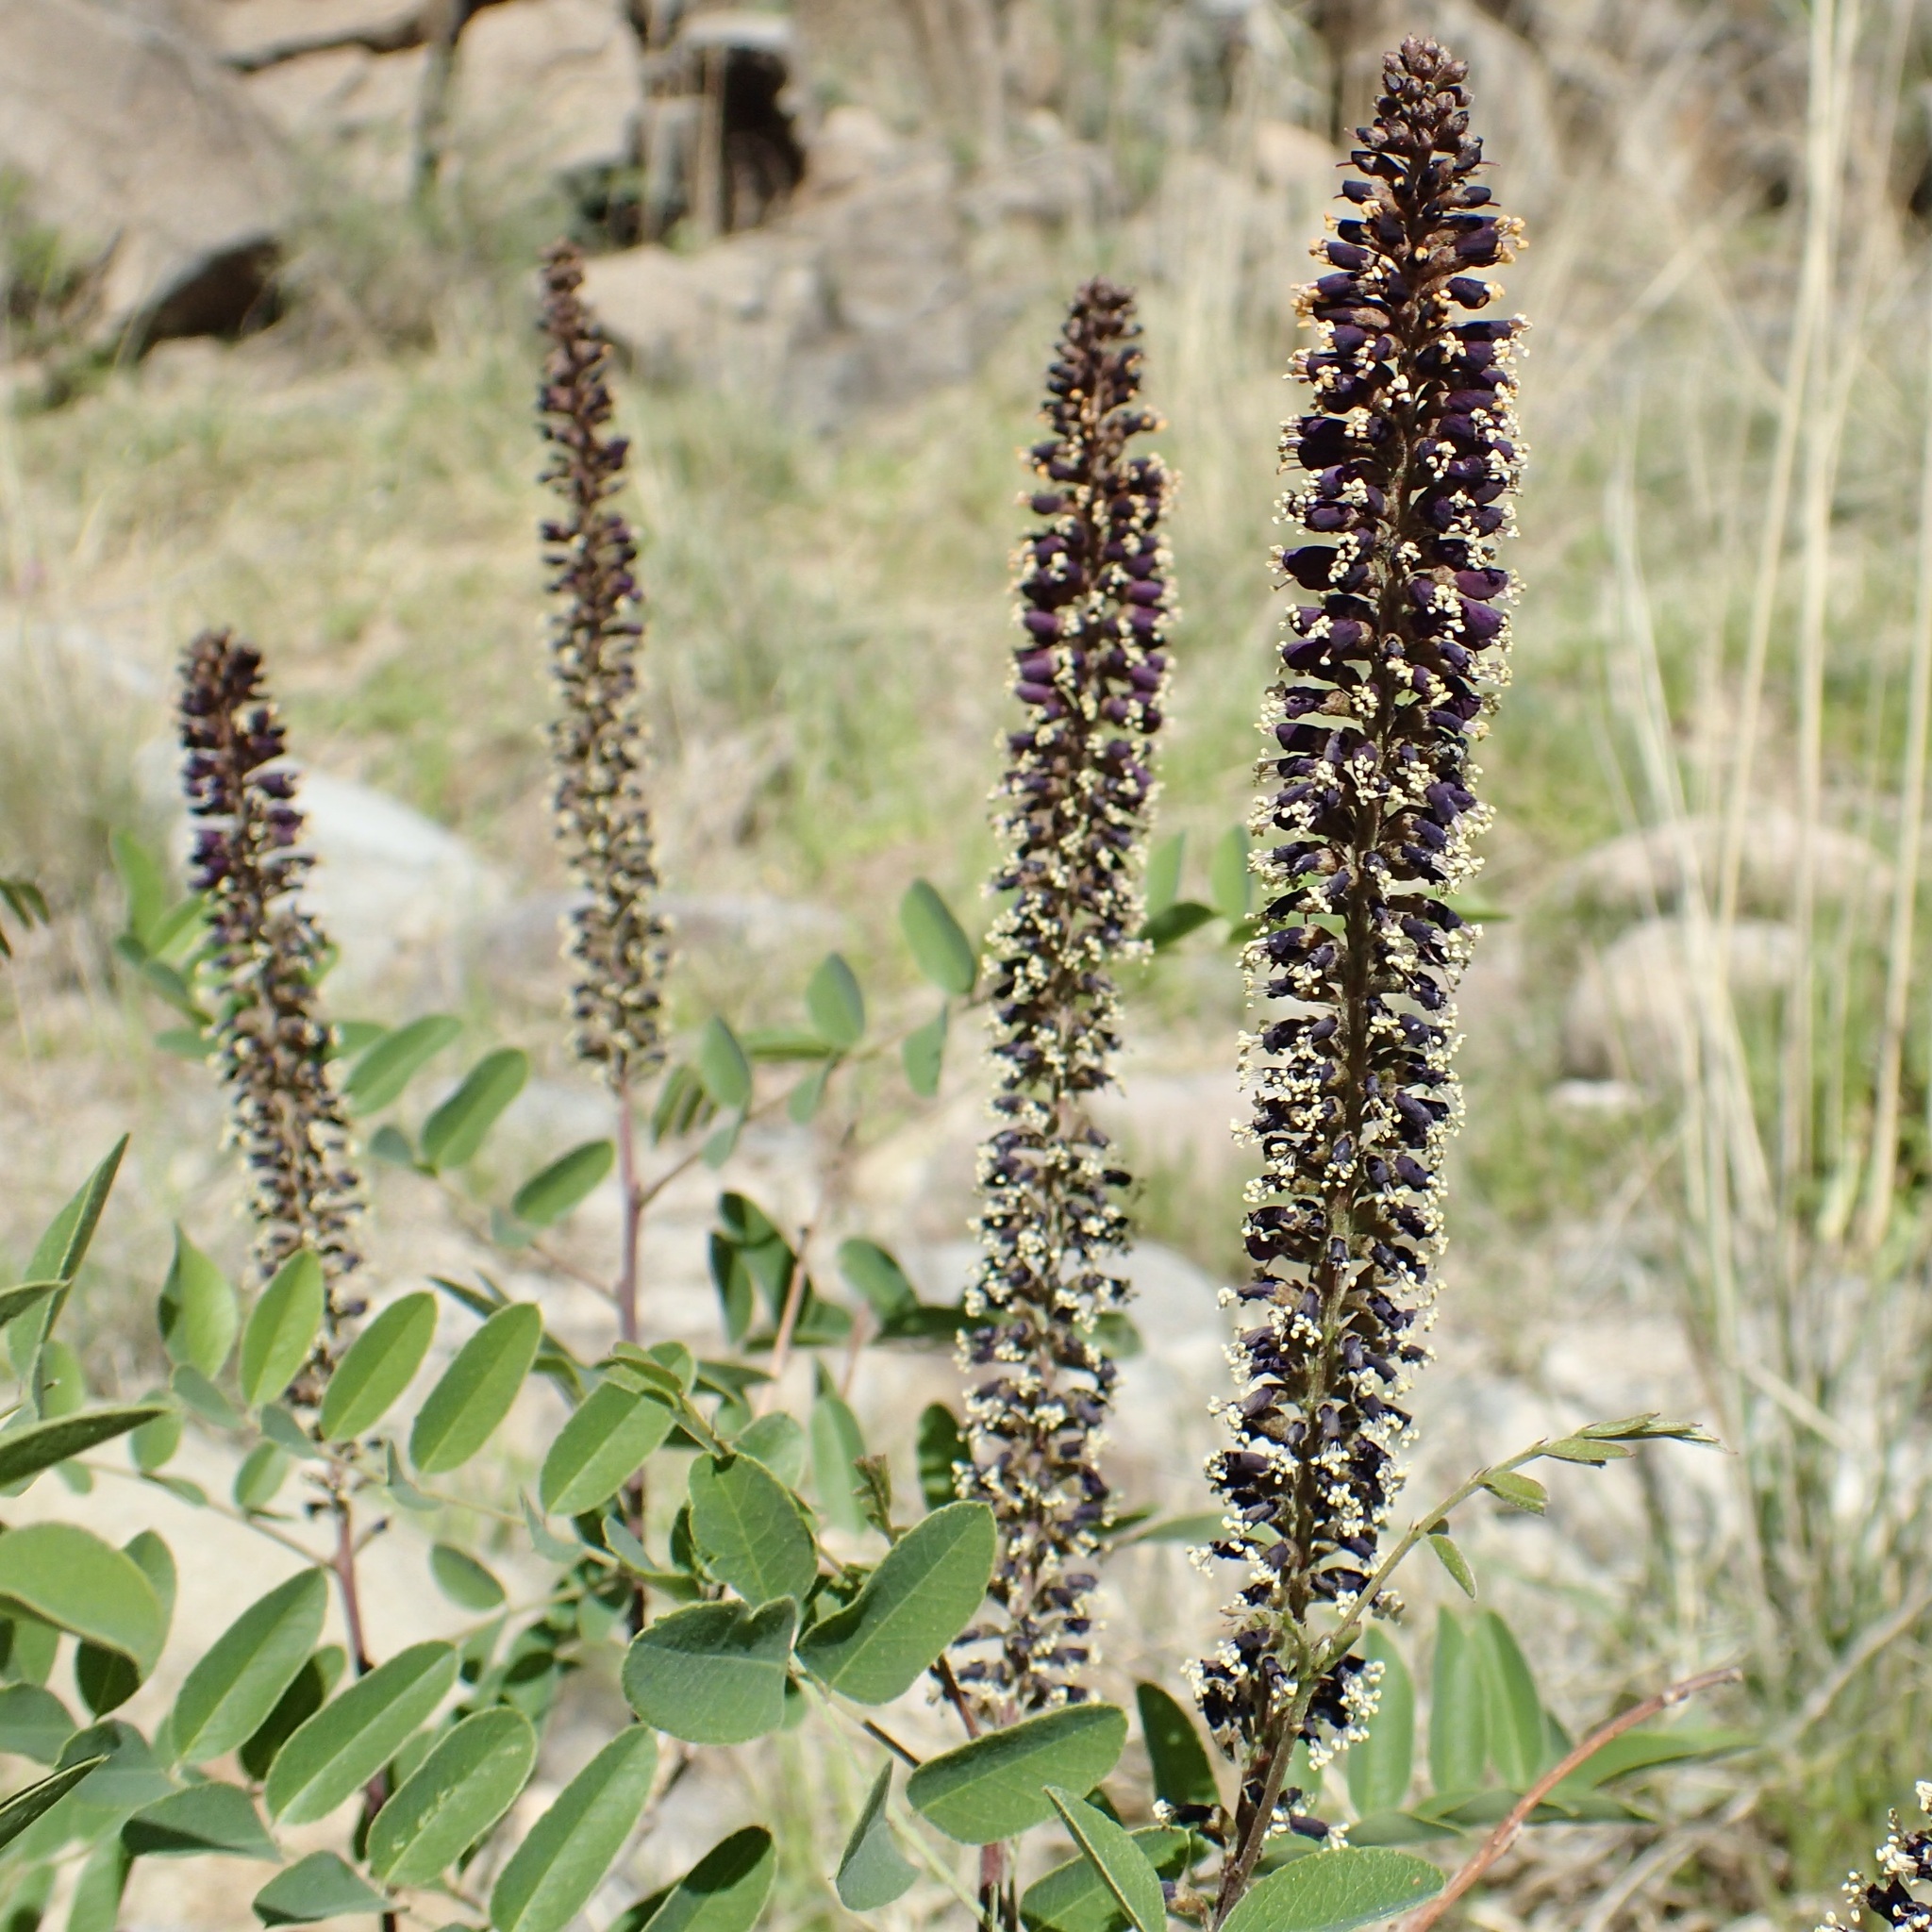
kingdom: Plantae
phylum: Tracheophyta
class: Magnoliopsida
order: Fabales
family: Fabaceae
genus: Amorpha
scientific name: Amorpha fruticosa
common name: False indigo
